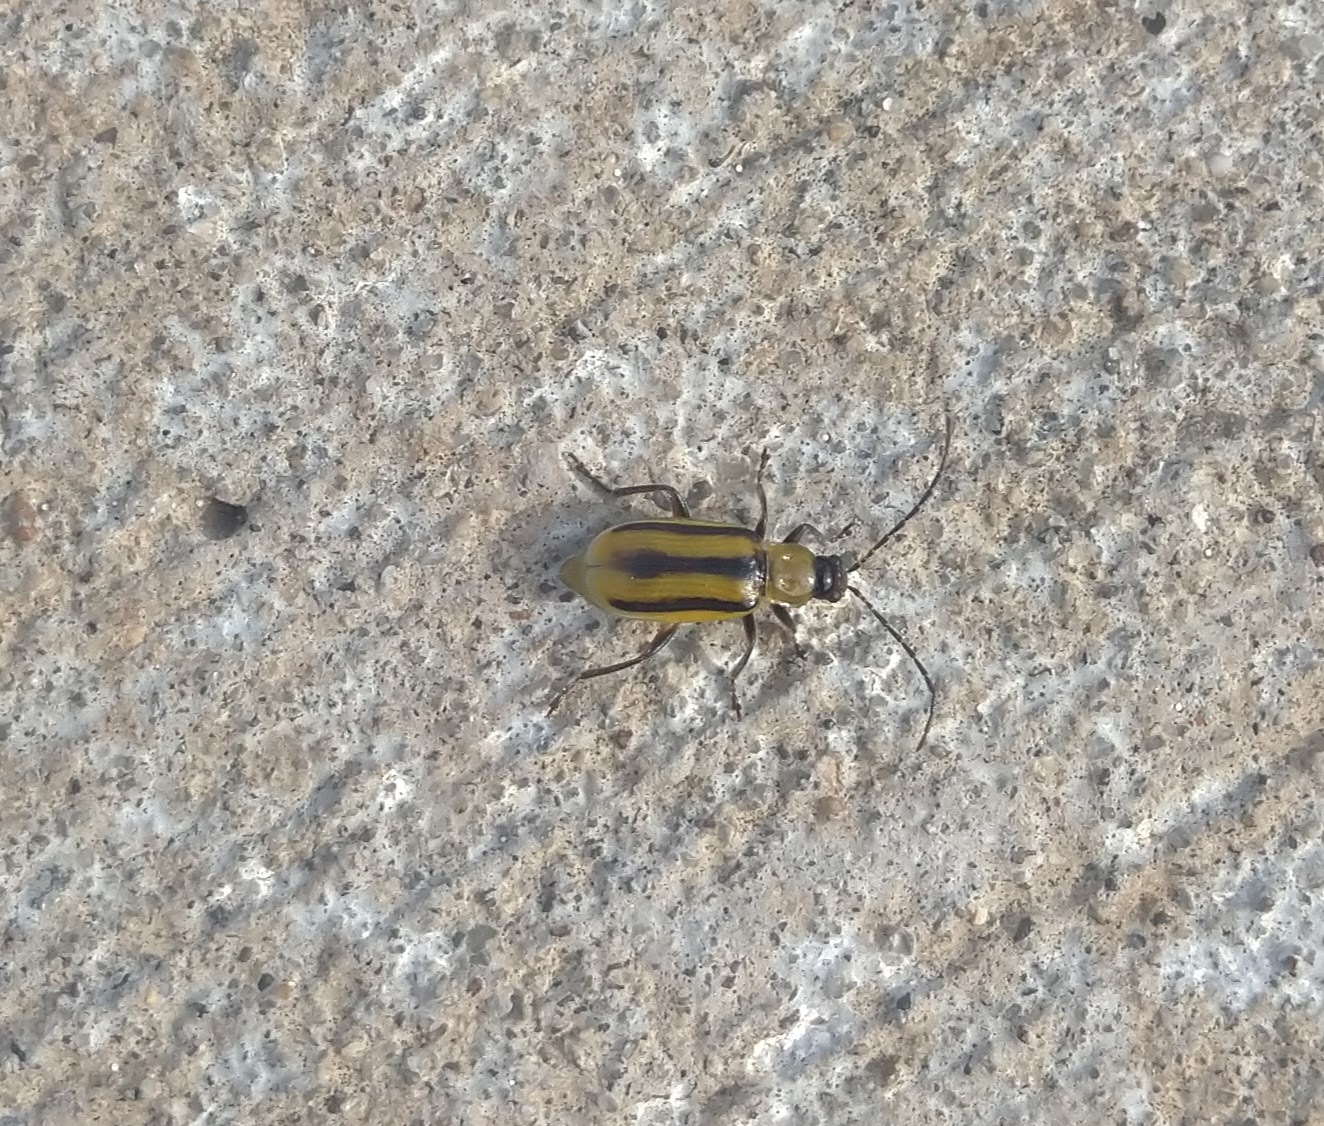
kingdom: Animalia
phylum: Arthropoda
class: Insecta
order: Coleoptera
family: Chrysomelidae
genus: Diabrotica
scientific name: Diabrotica virgifera
